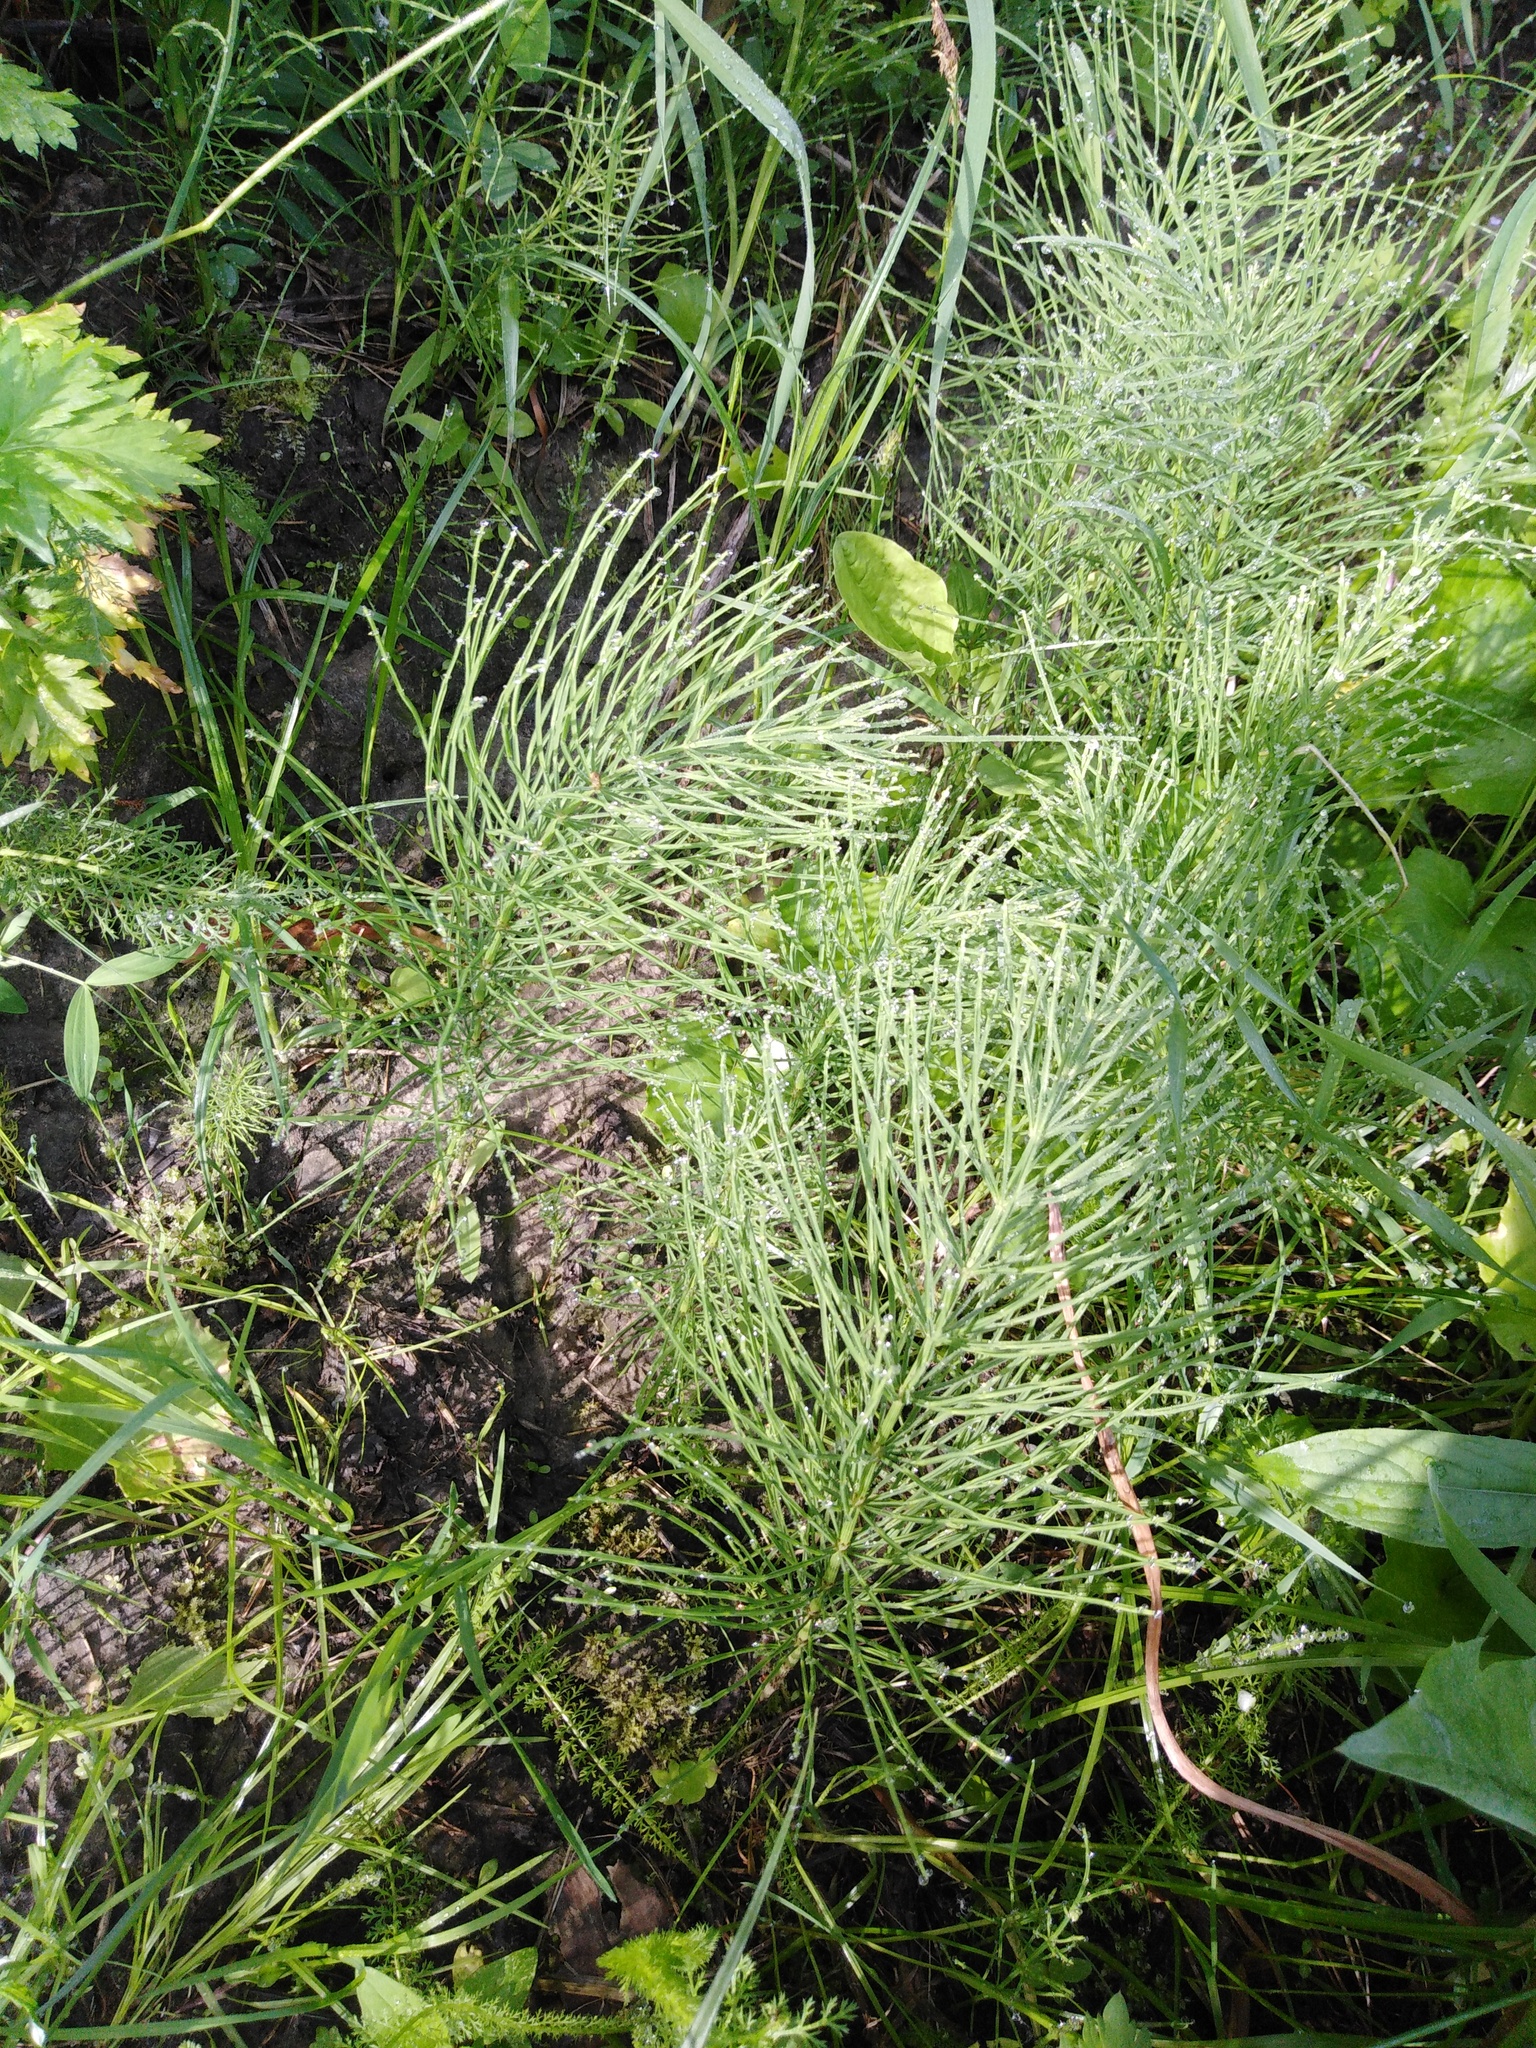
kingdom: Plantae
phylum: Tracheophyta
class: Polypodiopsida
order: Equisetales
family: Equisetaceae
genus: Equisetum
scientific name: Equisetum arvense
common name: Field horsetail
